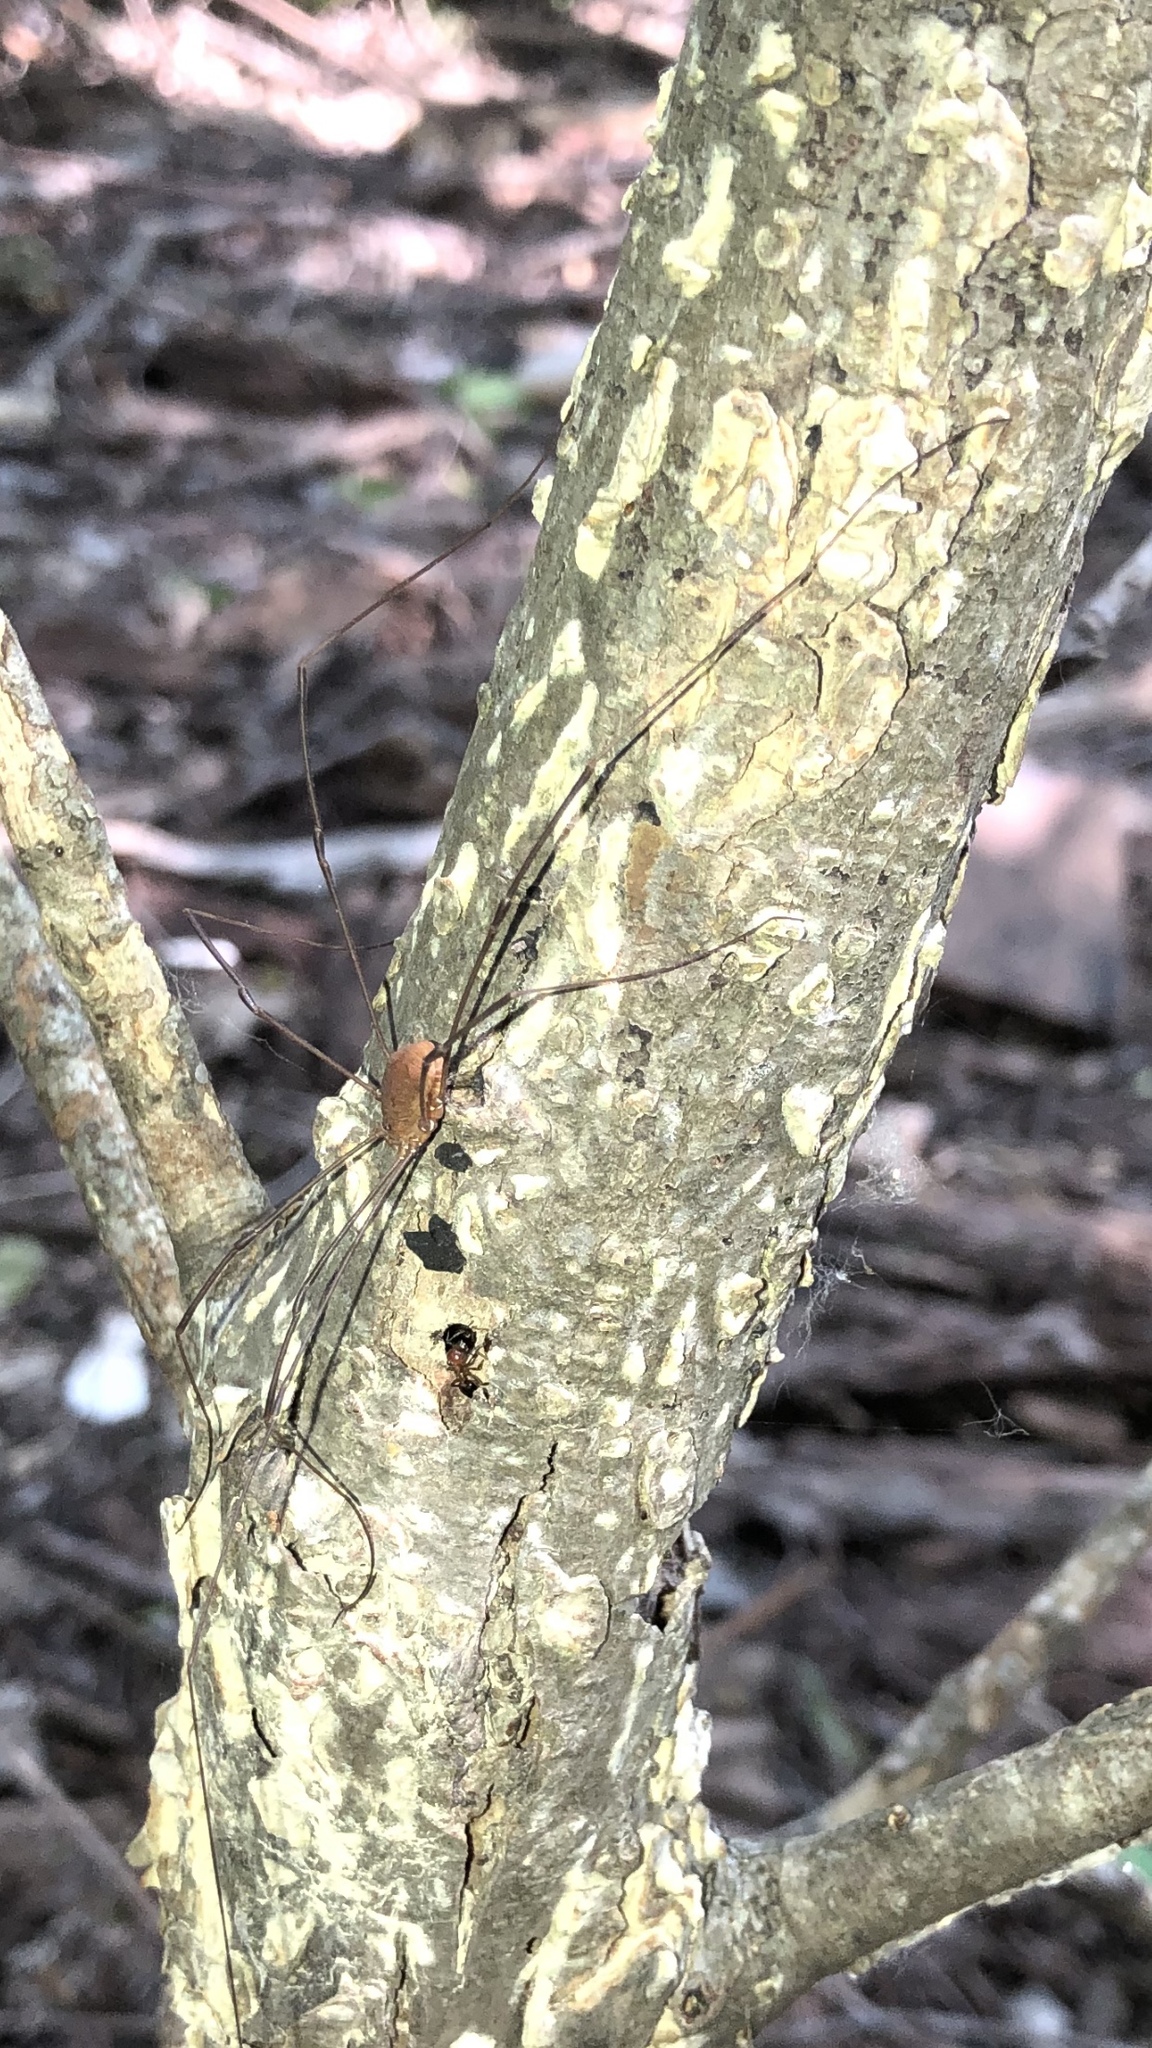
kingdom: Animalia
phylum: Arthropoda
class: Arachnida
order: Opiliones
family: Sclerosomatidae
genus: Leiobunum
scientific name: Leiobunum flavum
